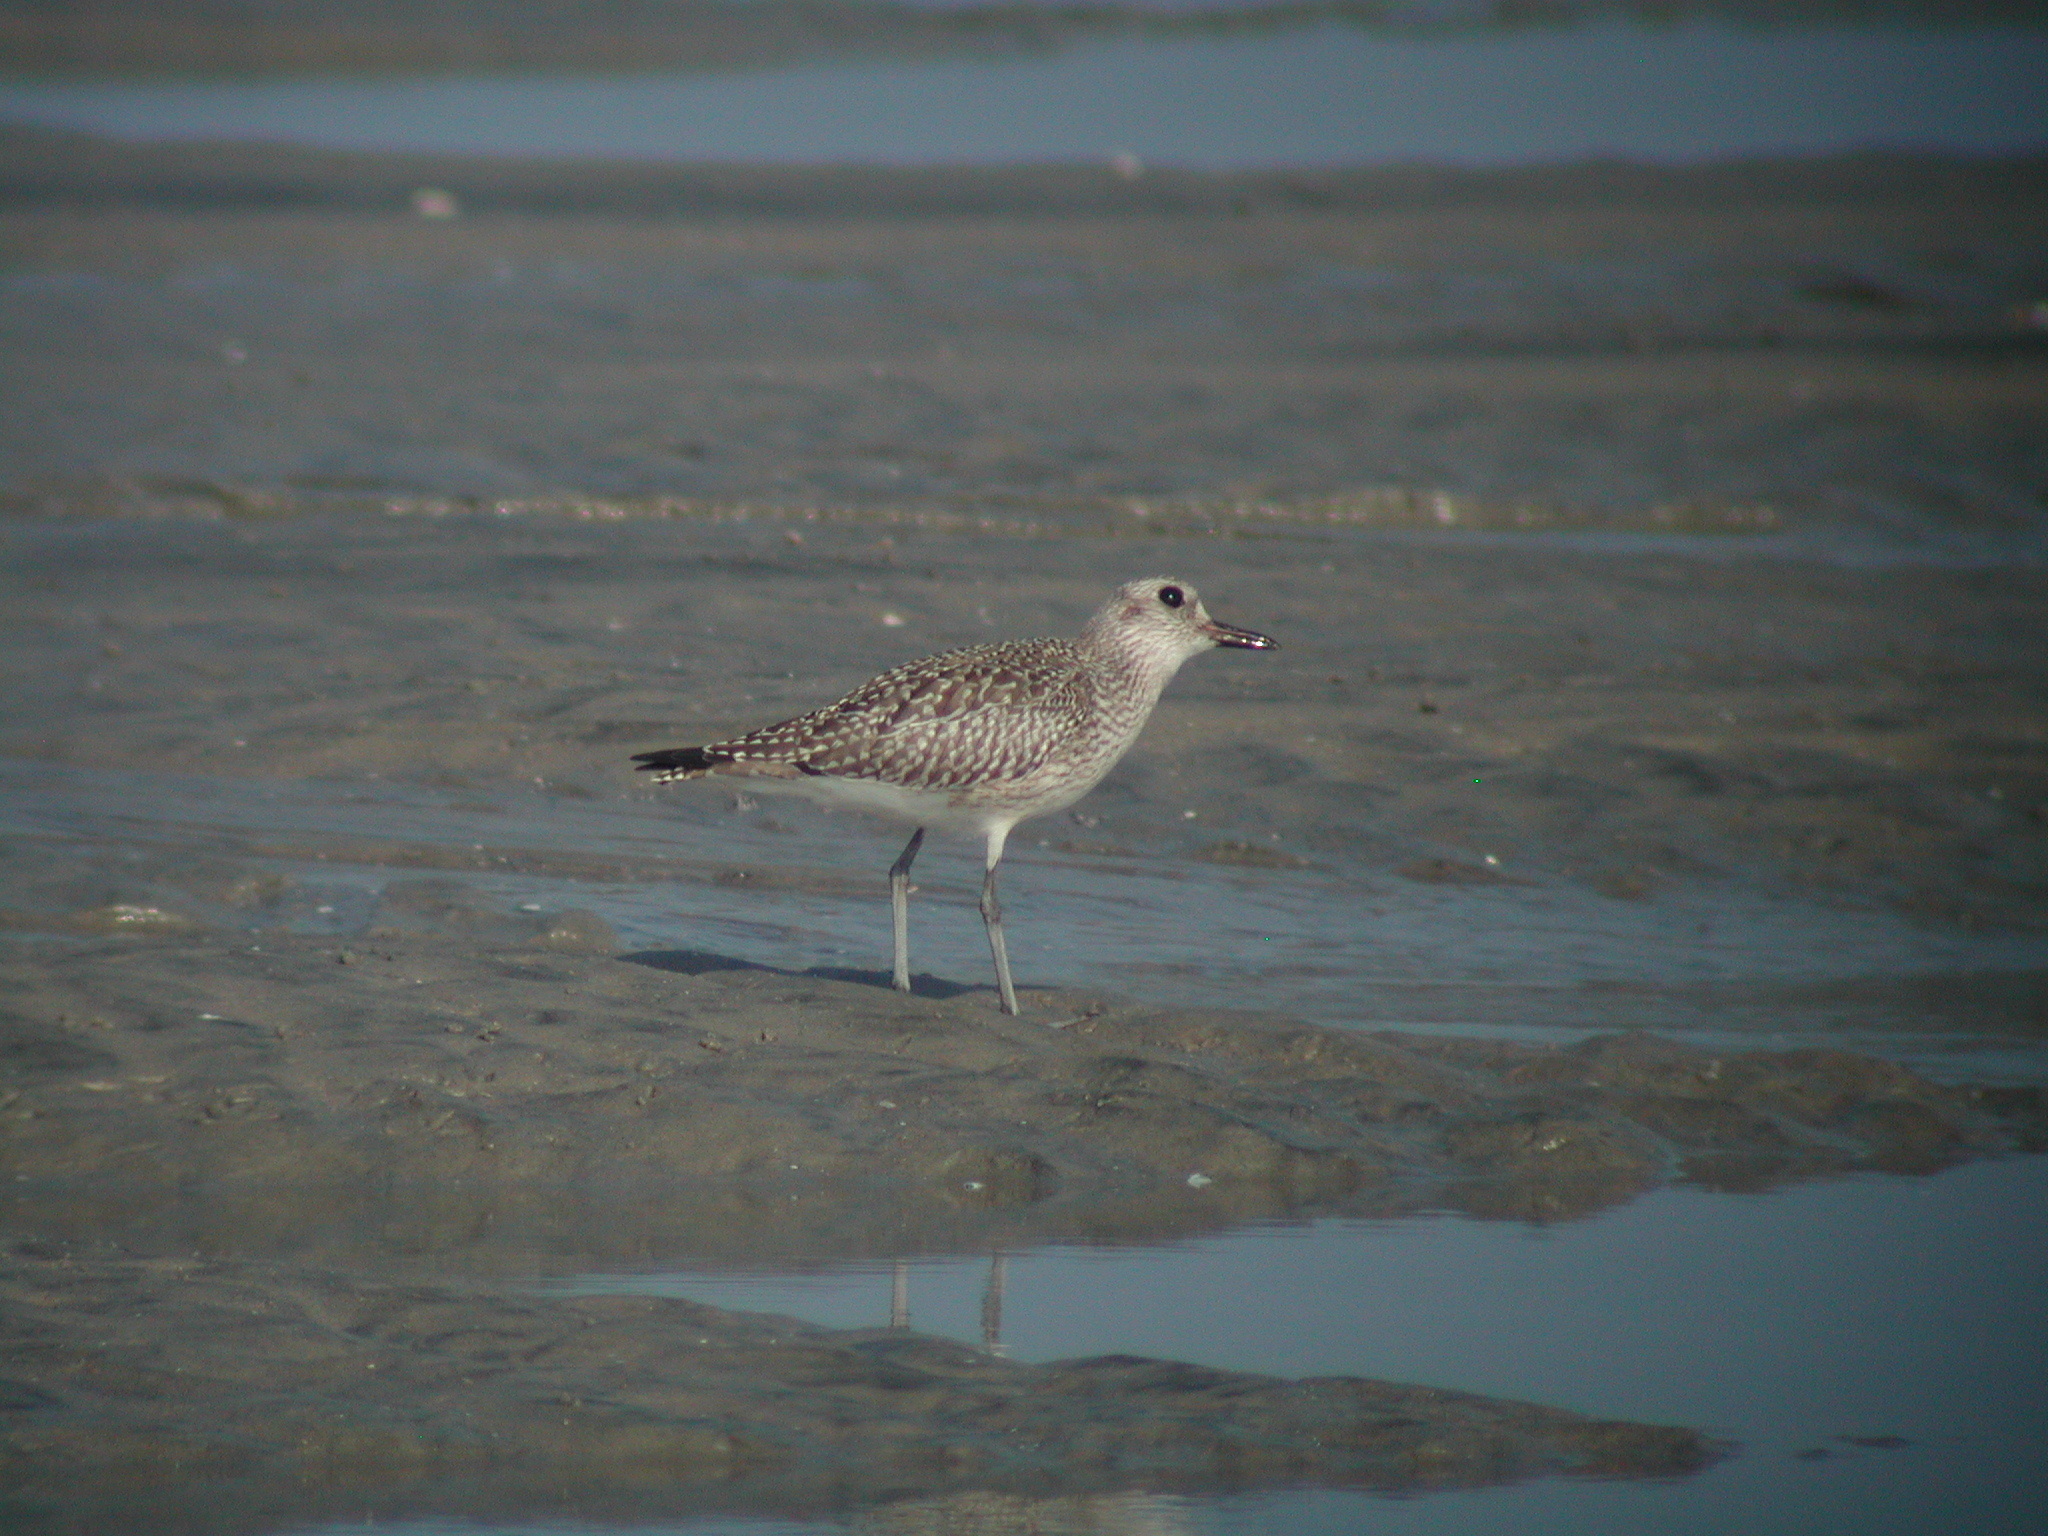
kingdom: Animalia
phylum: Chordata
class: Aves
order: Charadriiformes
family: Charadriidae
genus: Pluvialis
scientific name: Pluvialis squatarola
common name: Grey plover
